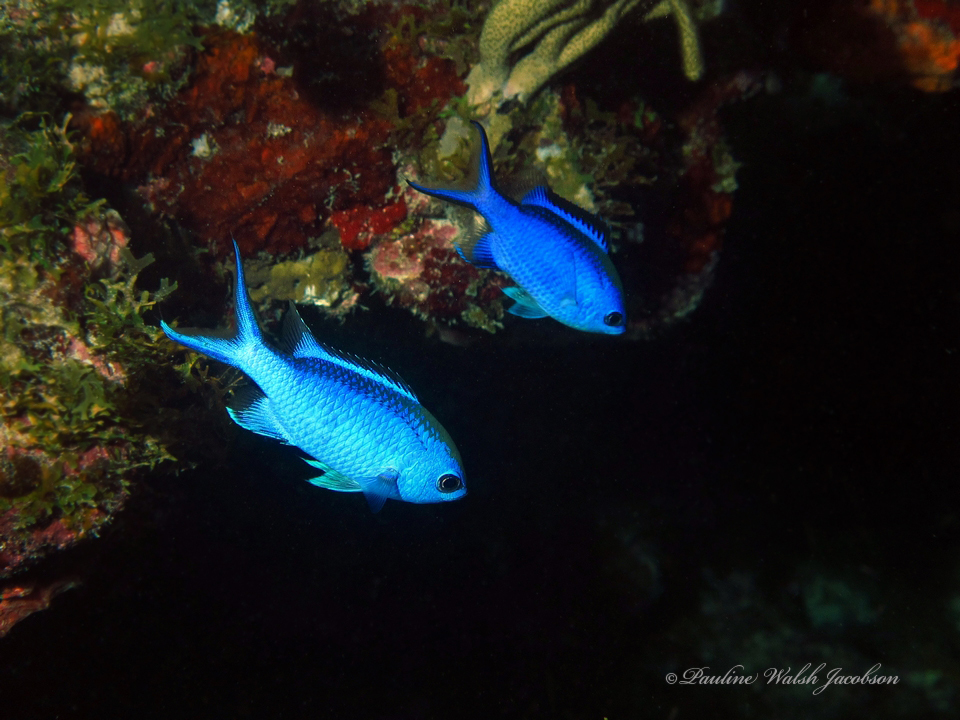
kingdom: Animalia
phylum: Chordata
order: Perciformes
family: Pomacentridae
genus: Chromis
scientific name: Chromis cyanea
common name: Blue chromis
